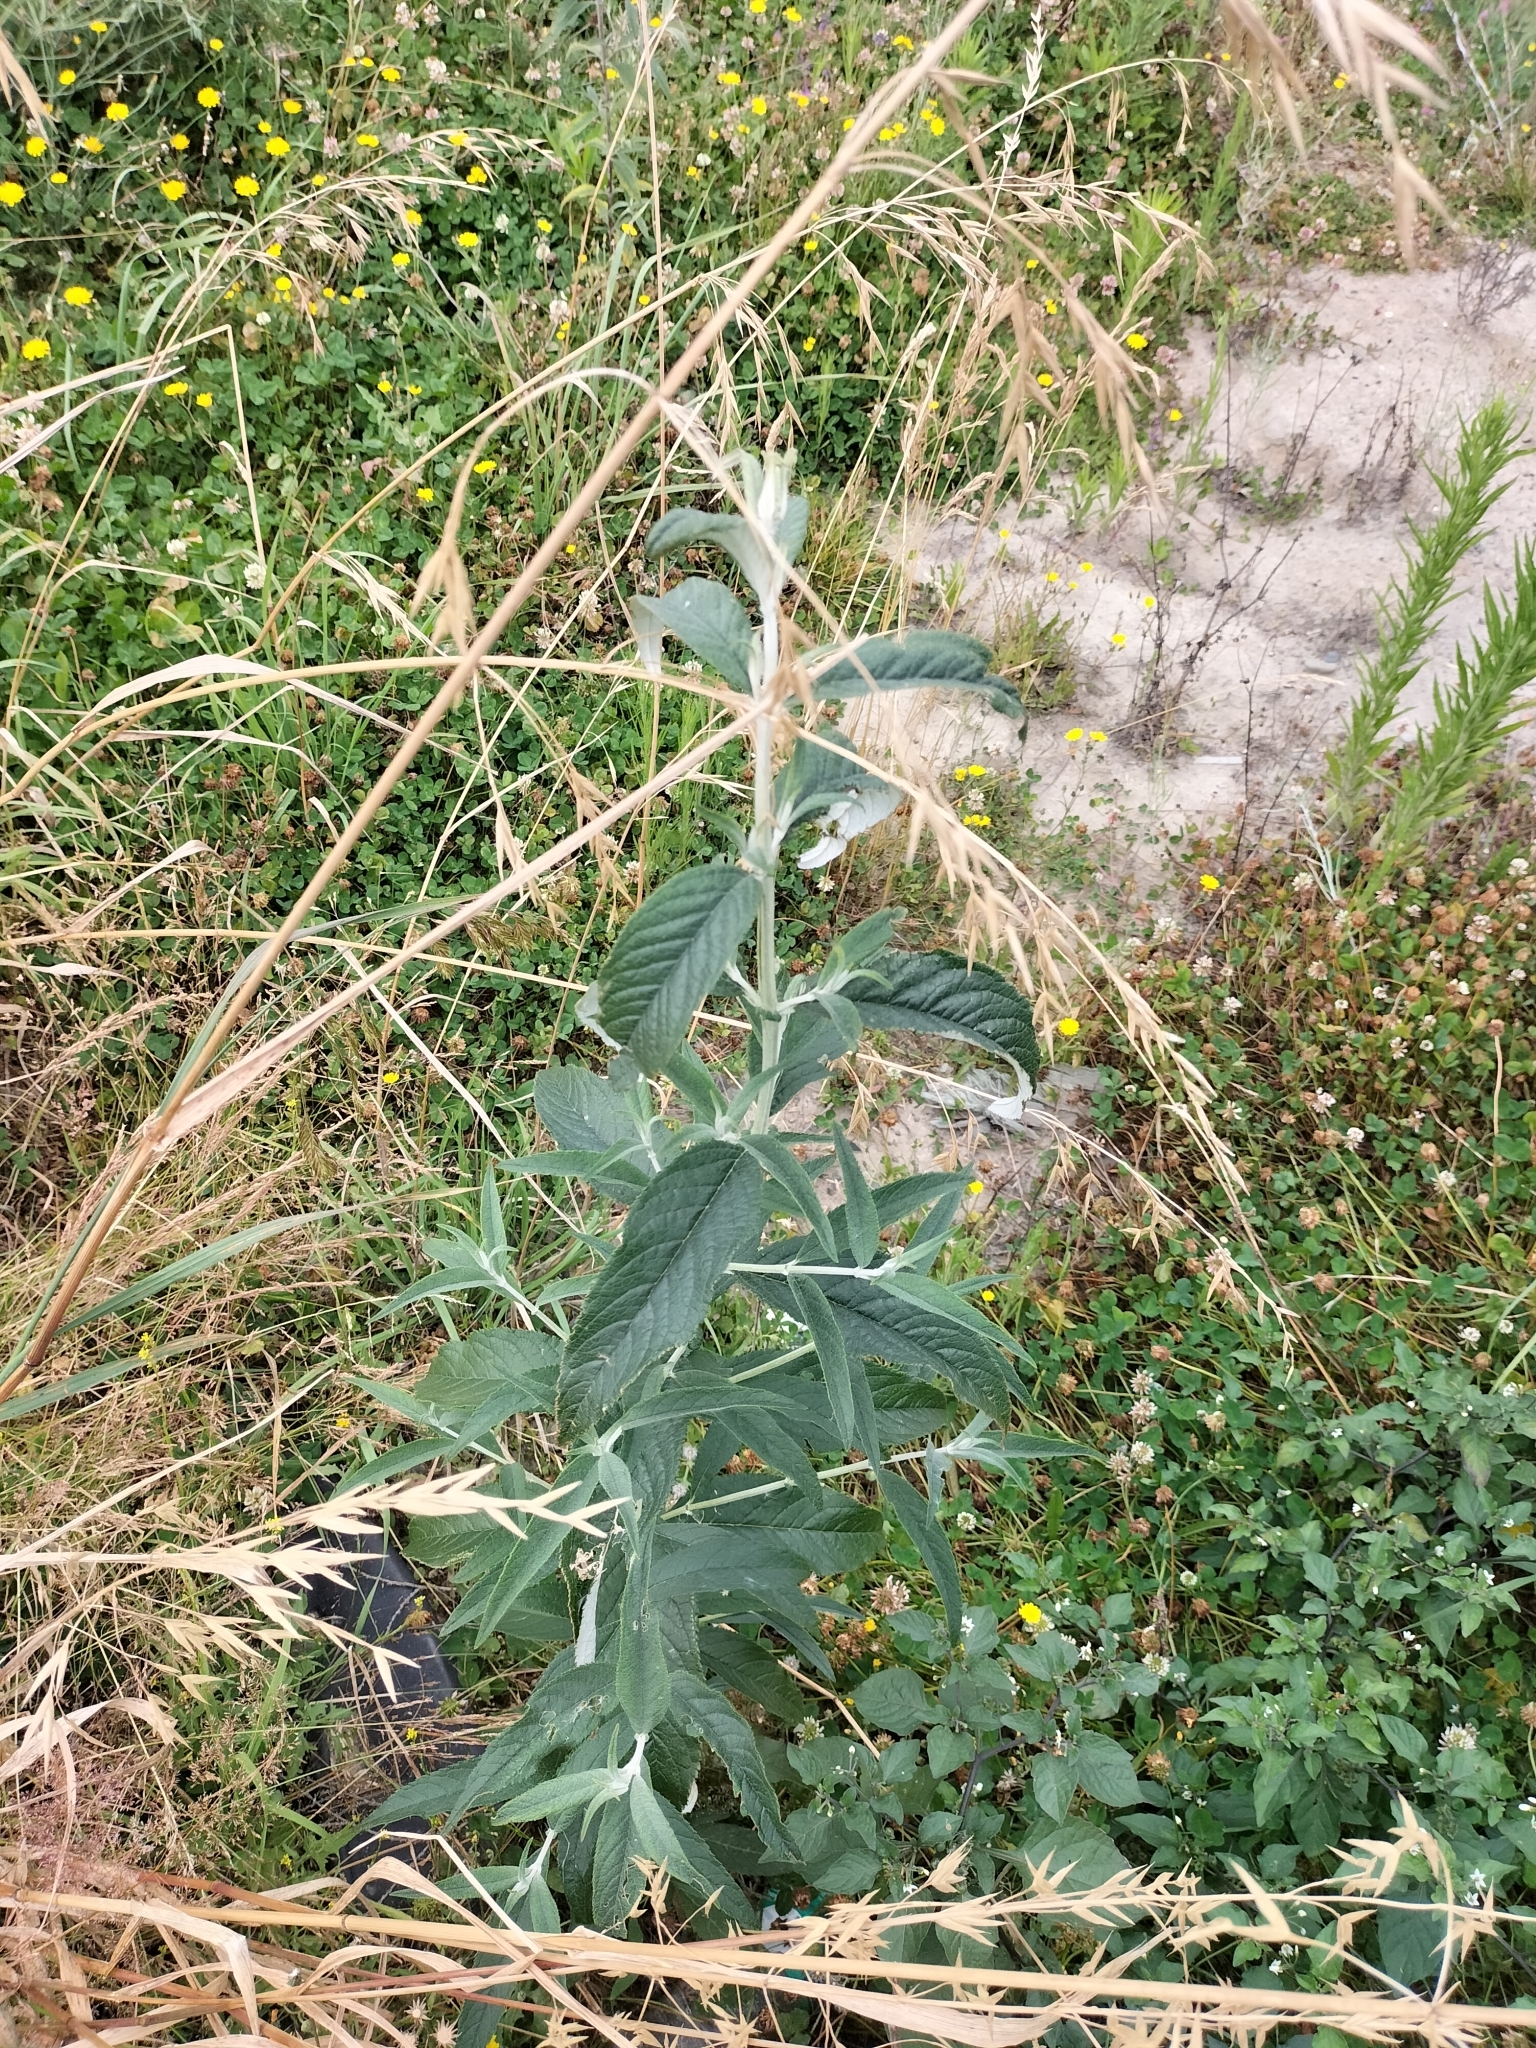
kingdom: Plantae
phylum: Tracheophyta
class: Magnoliopsida
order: Lamiales
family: Scrophulariaceae
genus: Buddleja
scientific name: Buddleja davidii
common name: Butterfly-bush
